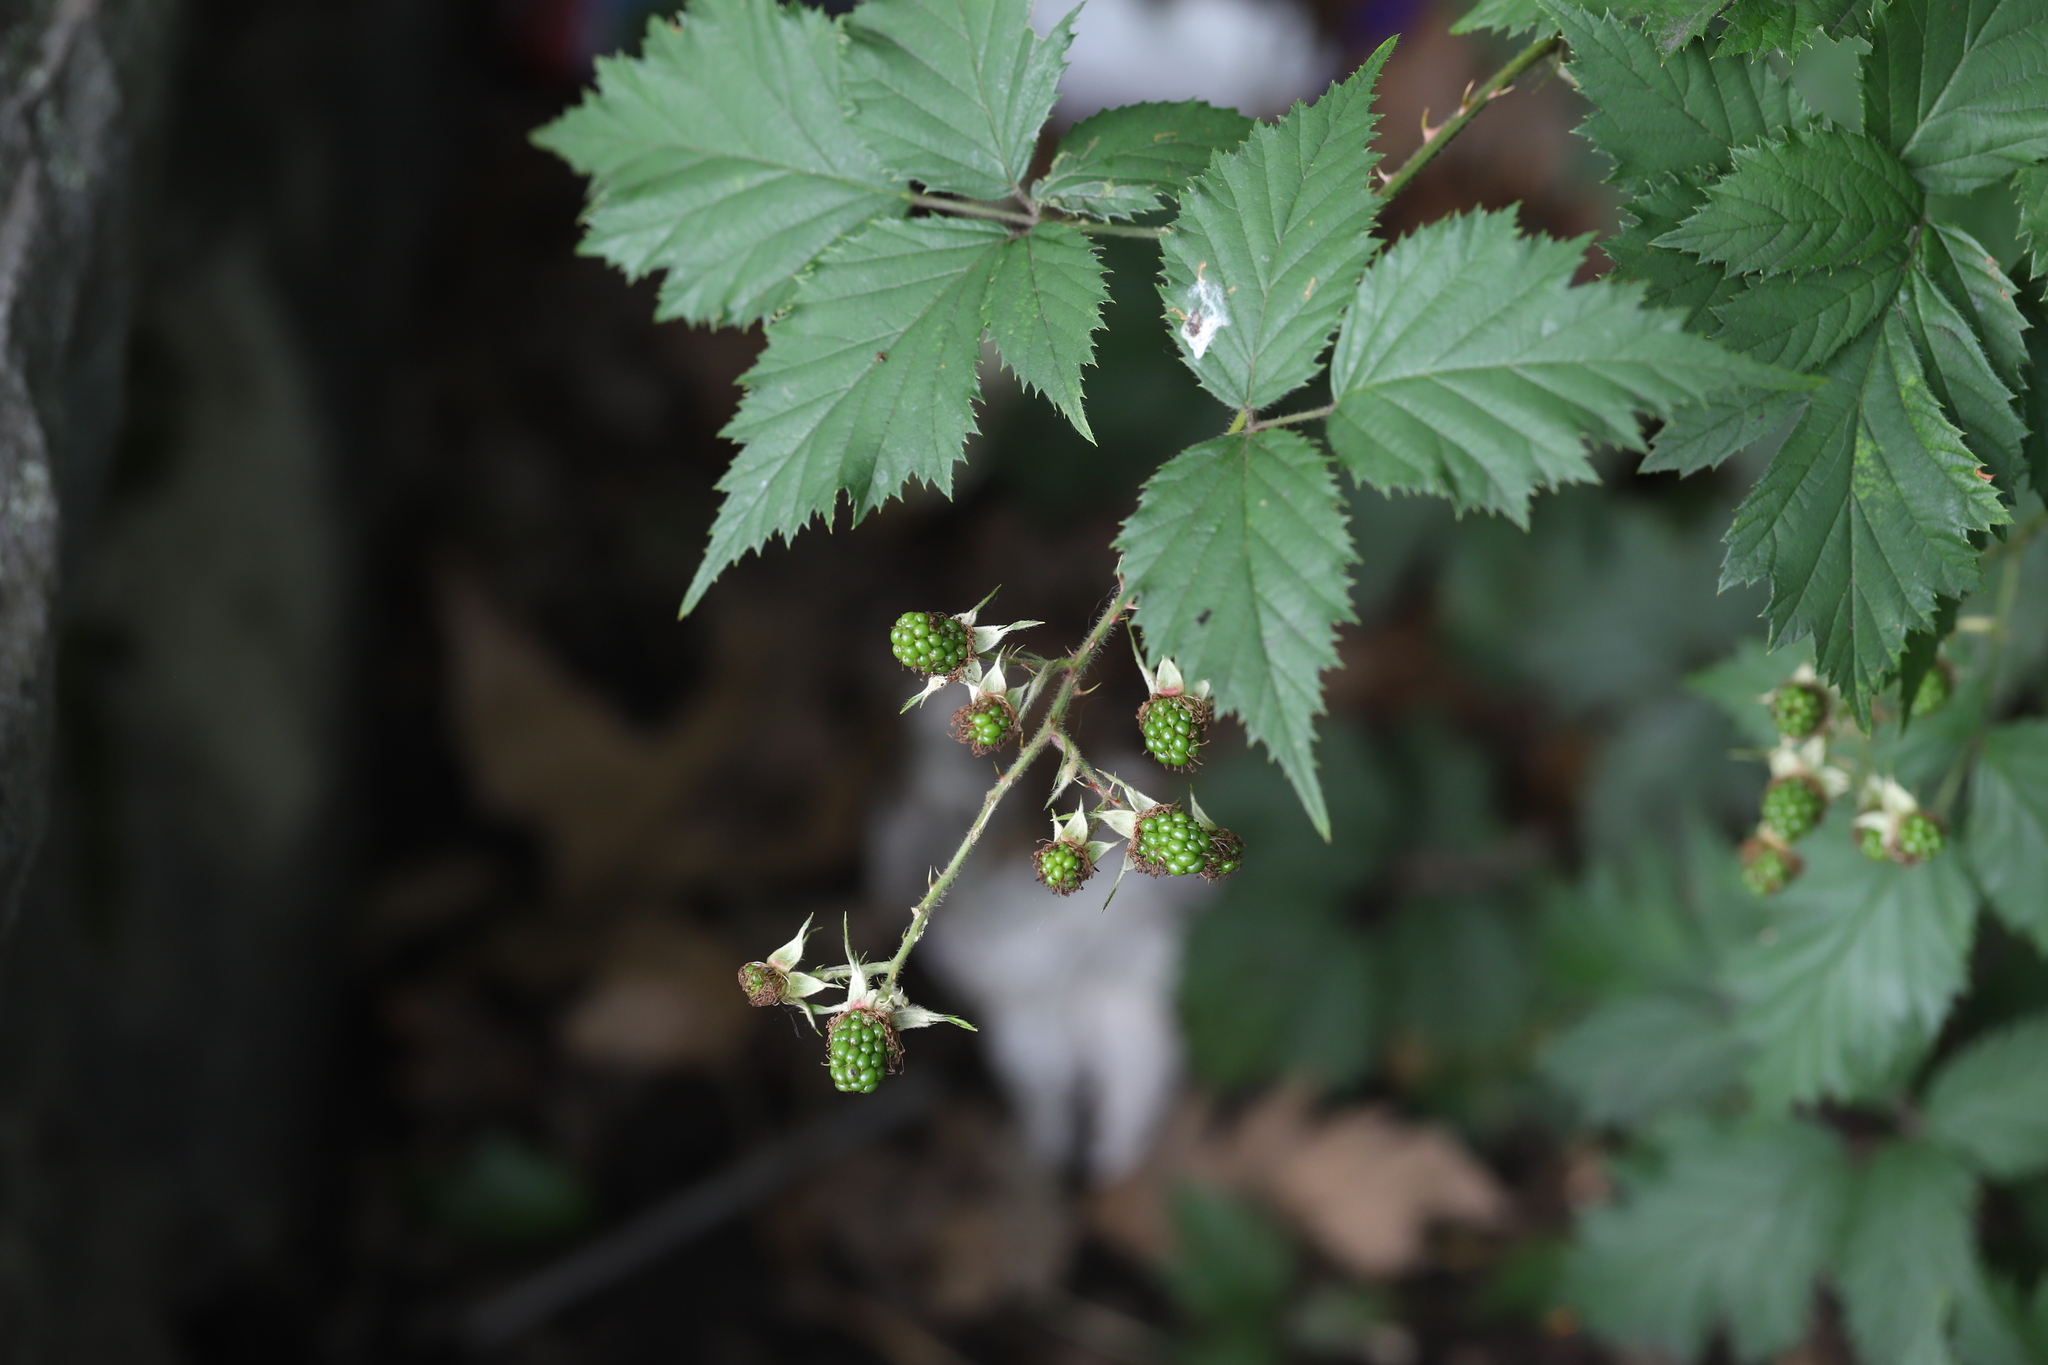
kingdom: Plantae
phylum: Tracheophyta
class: Magnoliopsida
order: Rosales
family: Rosaceae
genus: Rubus
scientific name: Rubus laciniatus
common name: Evergreen blackberry
